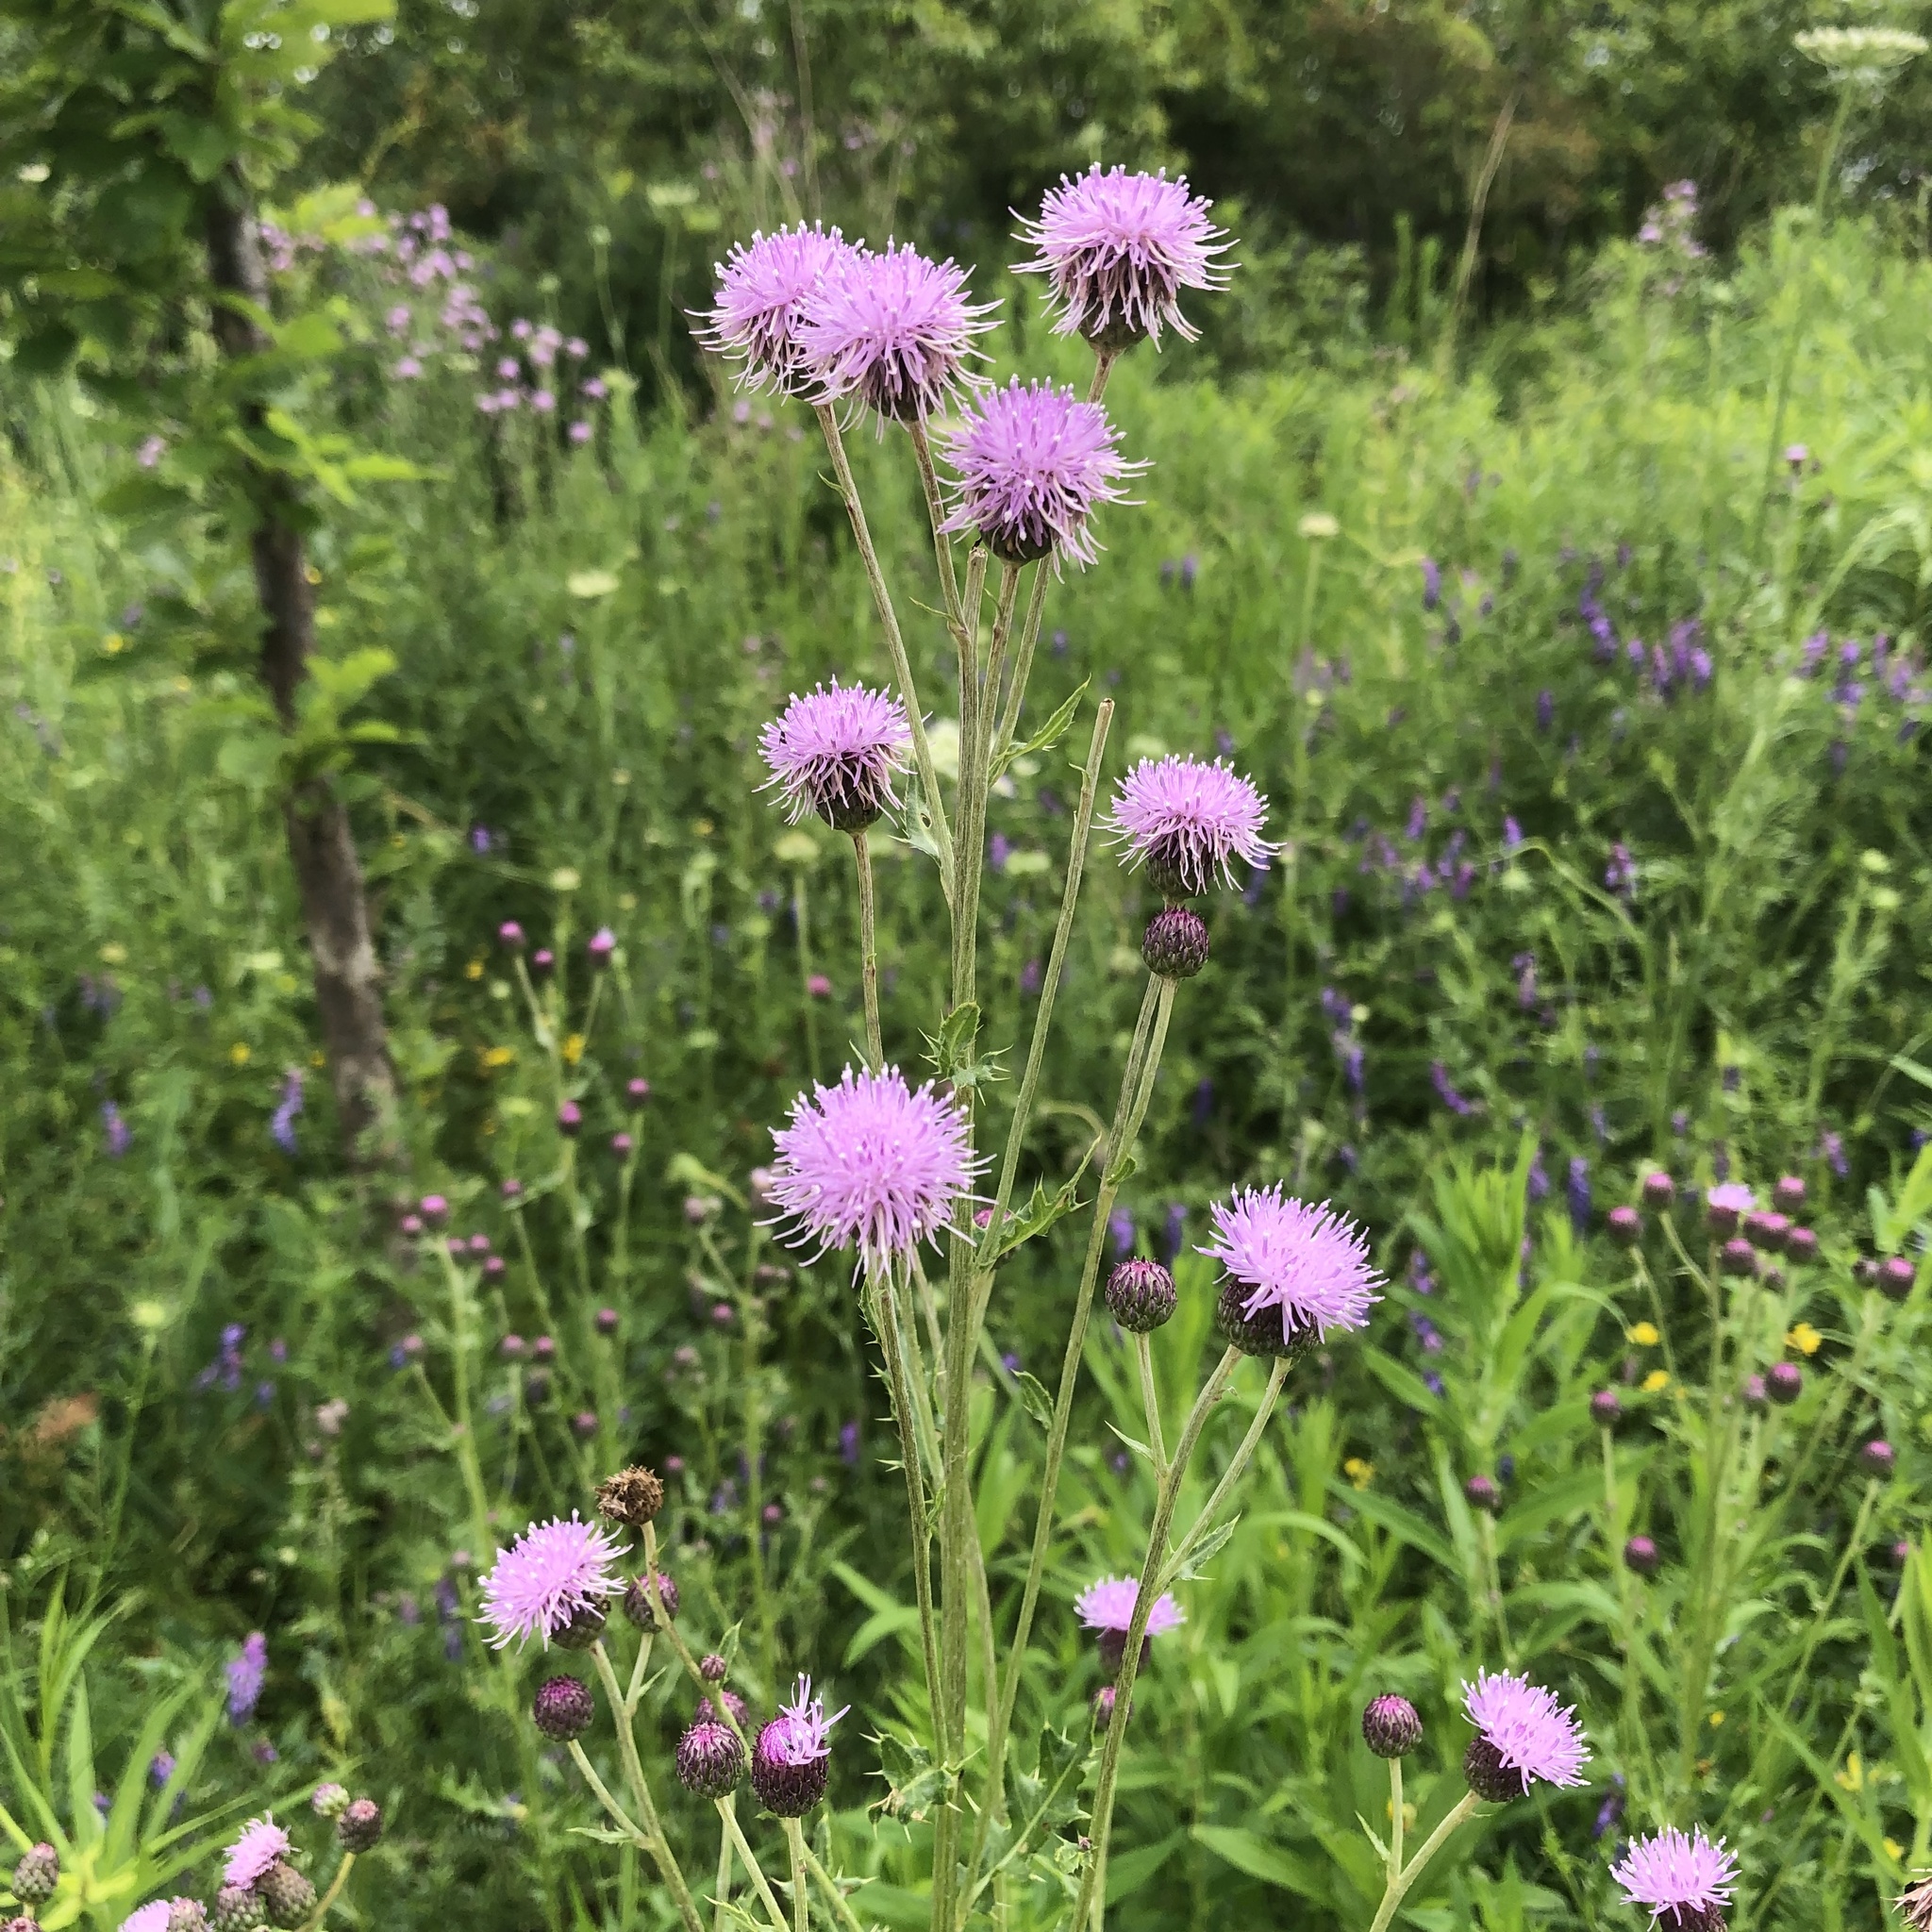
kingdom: Plantae
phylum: Tracheophyta
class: Magnoliopsida
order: Asterales
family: Asteraceae
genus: Cirsium
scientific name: Cirsium arvense
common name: Creeping thistle
